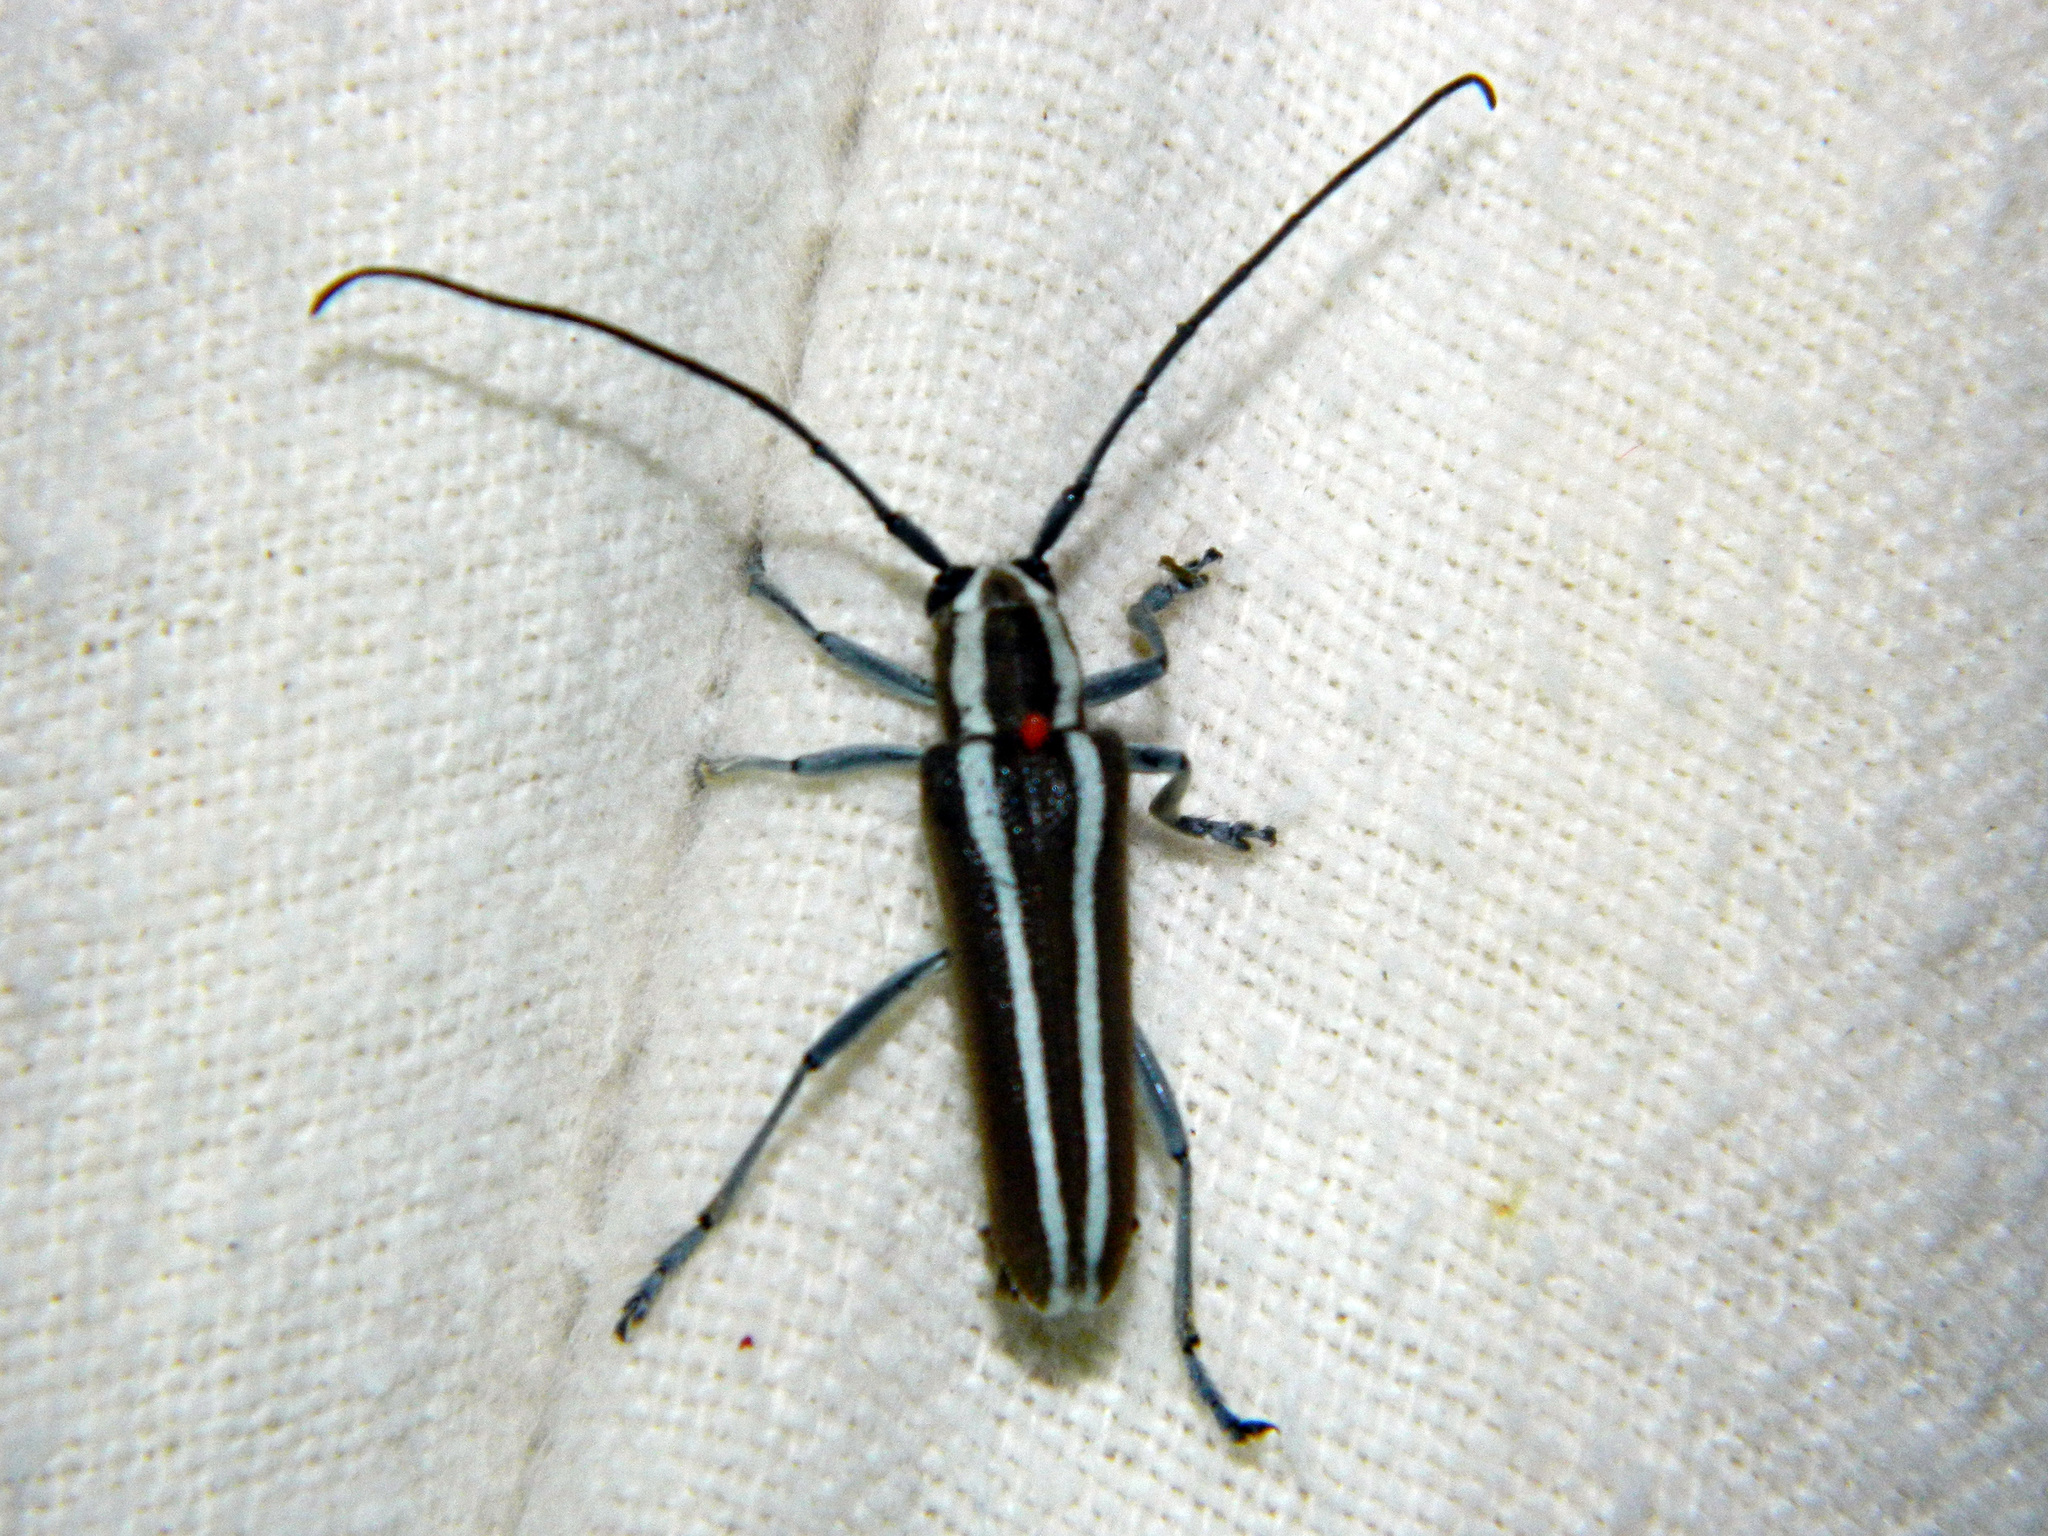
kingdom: Animalia
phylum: Arthropoda
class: Insecta
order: Coleoptera
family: Cerambycidae
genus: Saperda
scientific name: Saperda candida
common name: Round-headed borer
